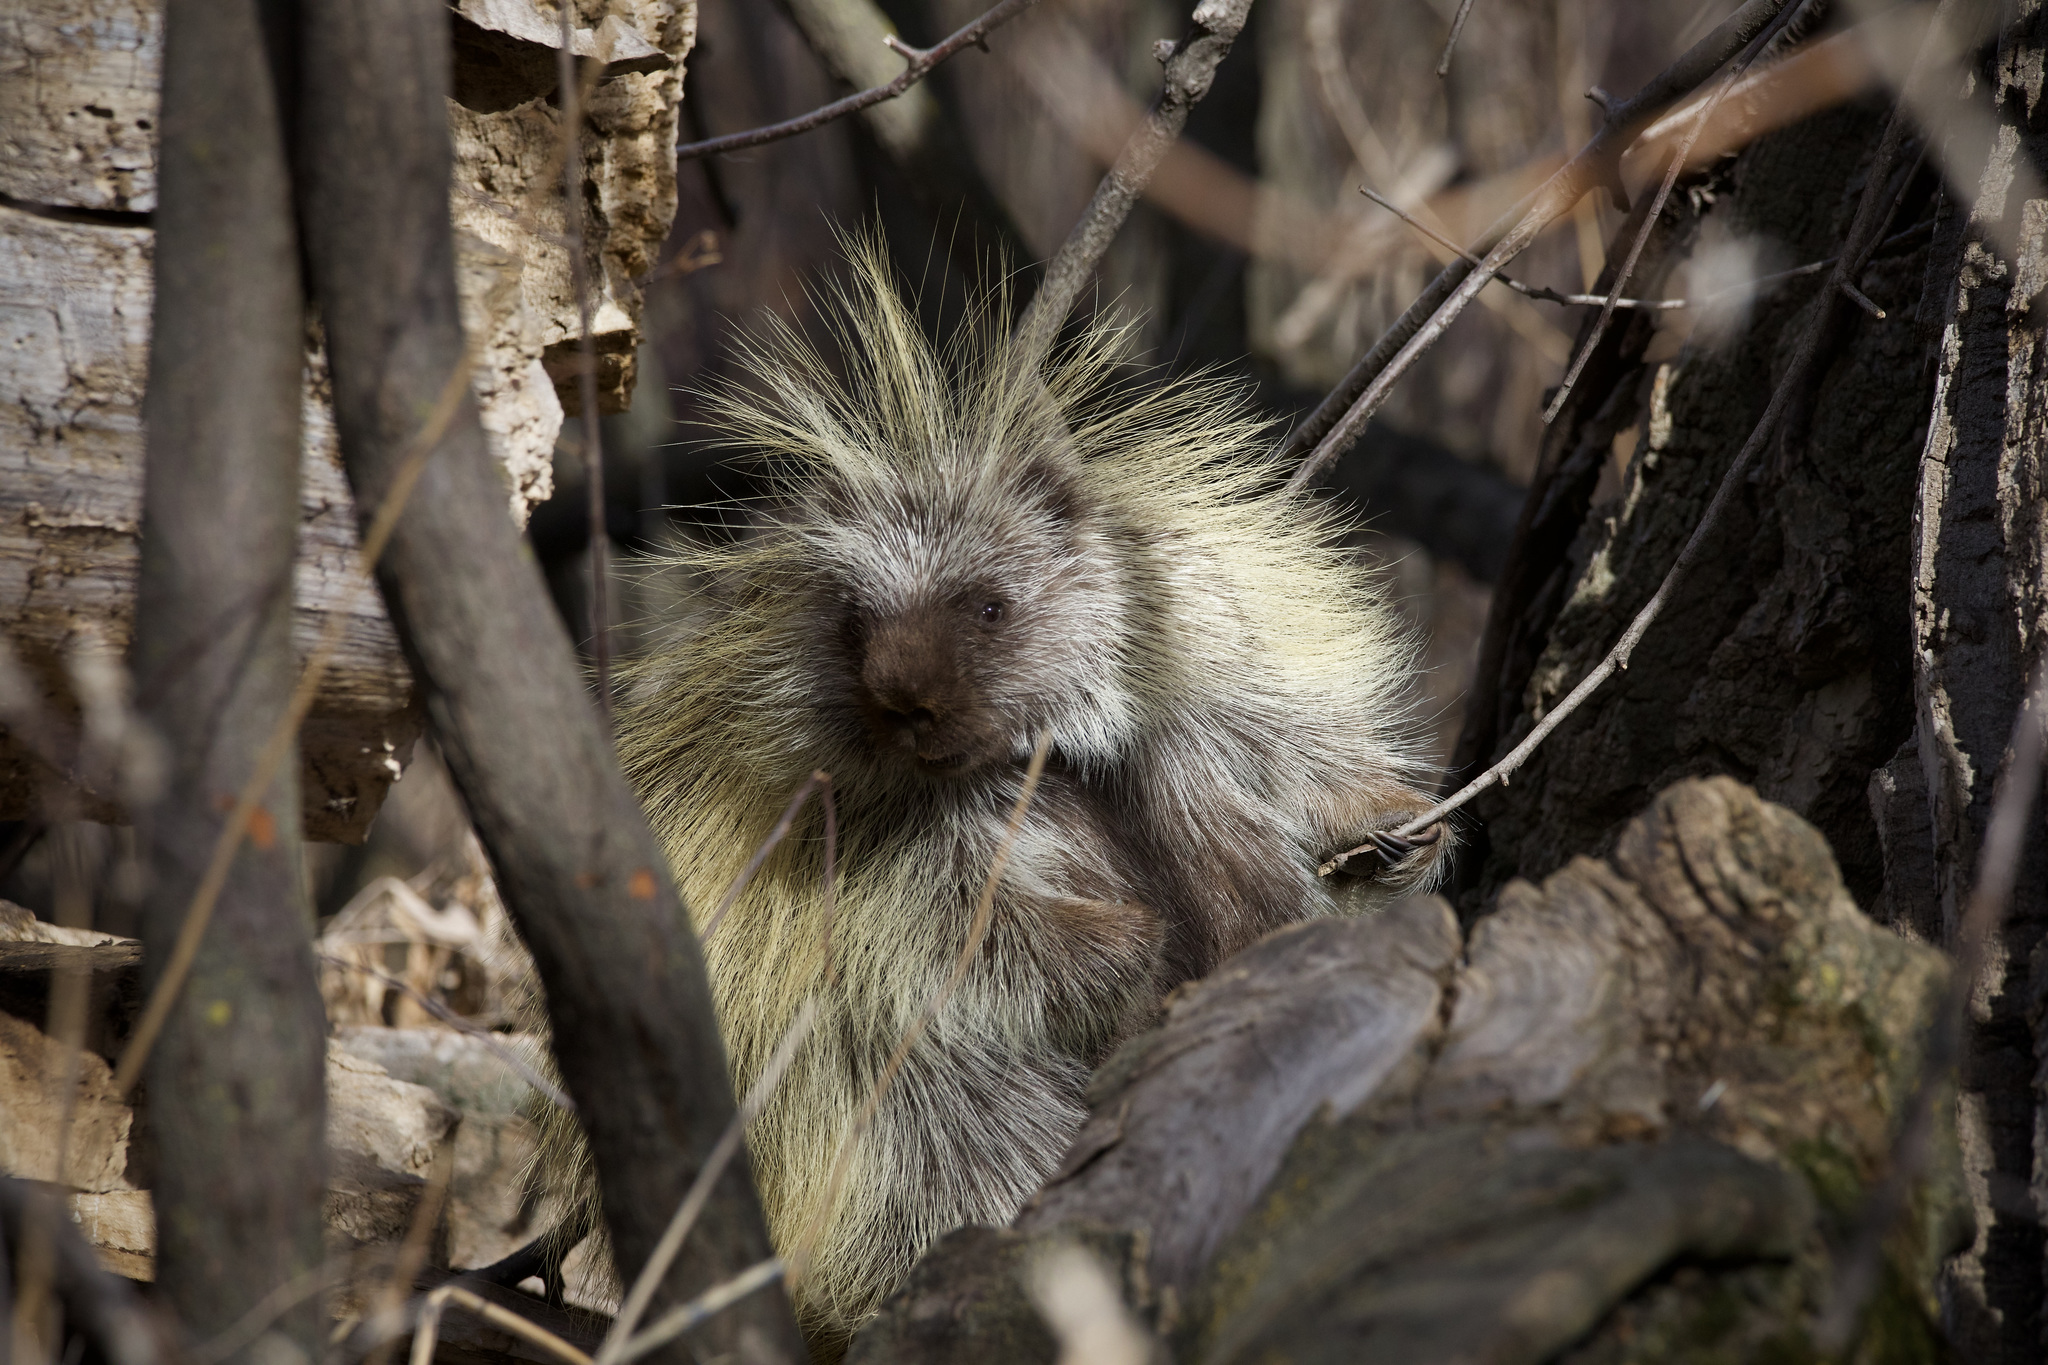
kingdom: Animalia
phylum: Chordata
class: Mammalia
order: Rodentia
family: Erethizontidae
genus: Erethizon
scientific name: Erethizon dorsatus
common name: North american porcupine
